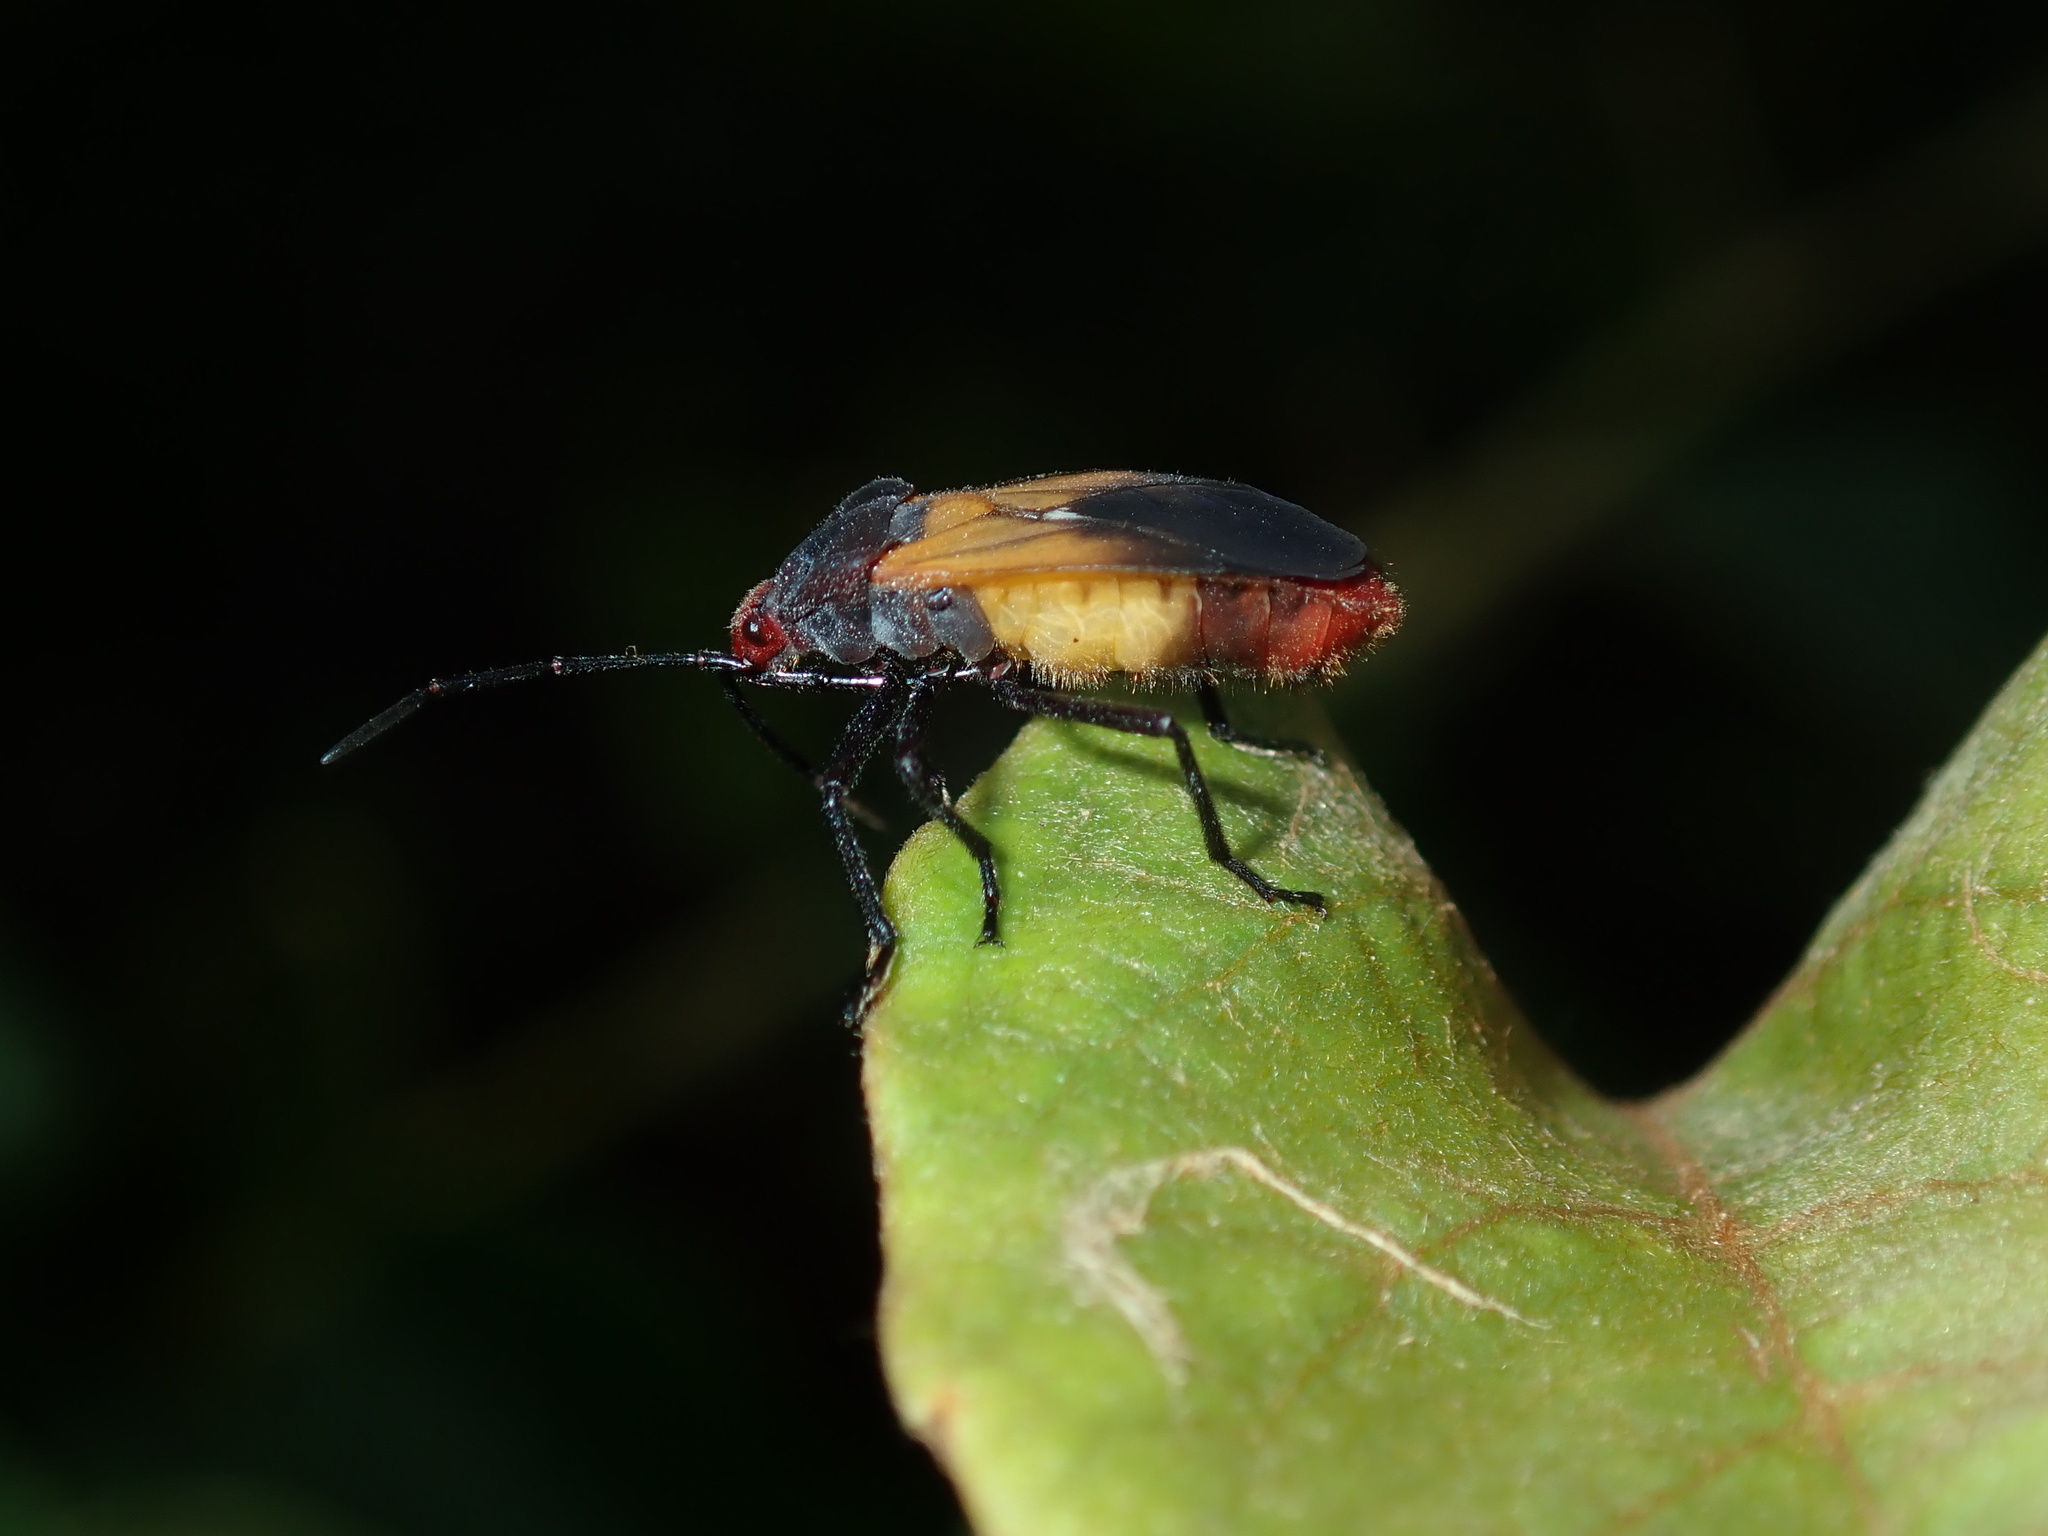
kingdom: Animalia
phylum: Arthropoda
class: Insecta
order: Hemiptera
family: Lygaeidae
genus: Oncopeltus
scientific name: Oncopeltus sordidus
